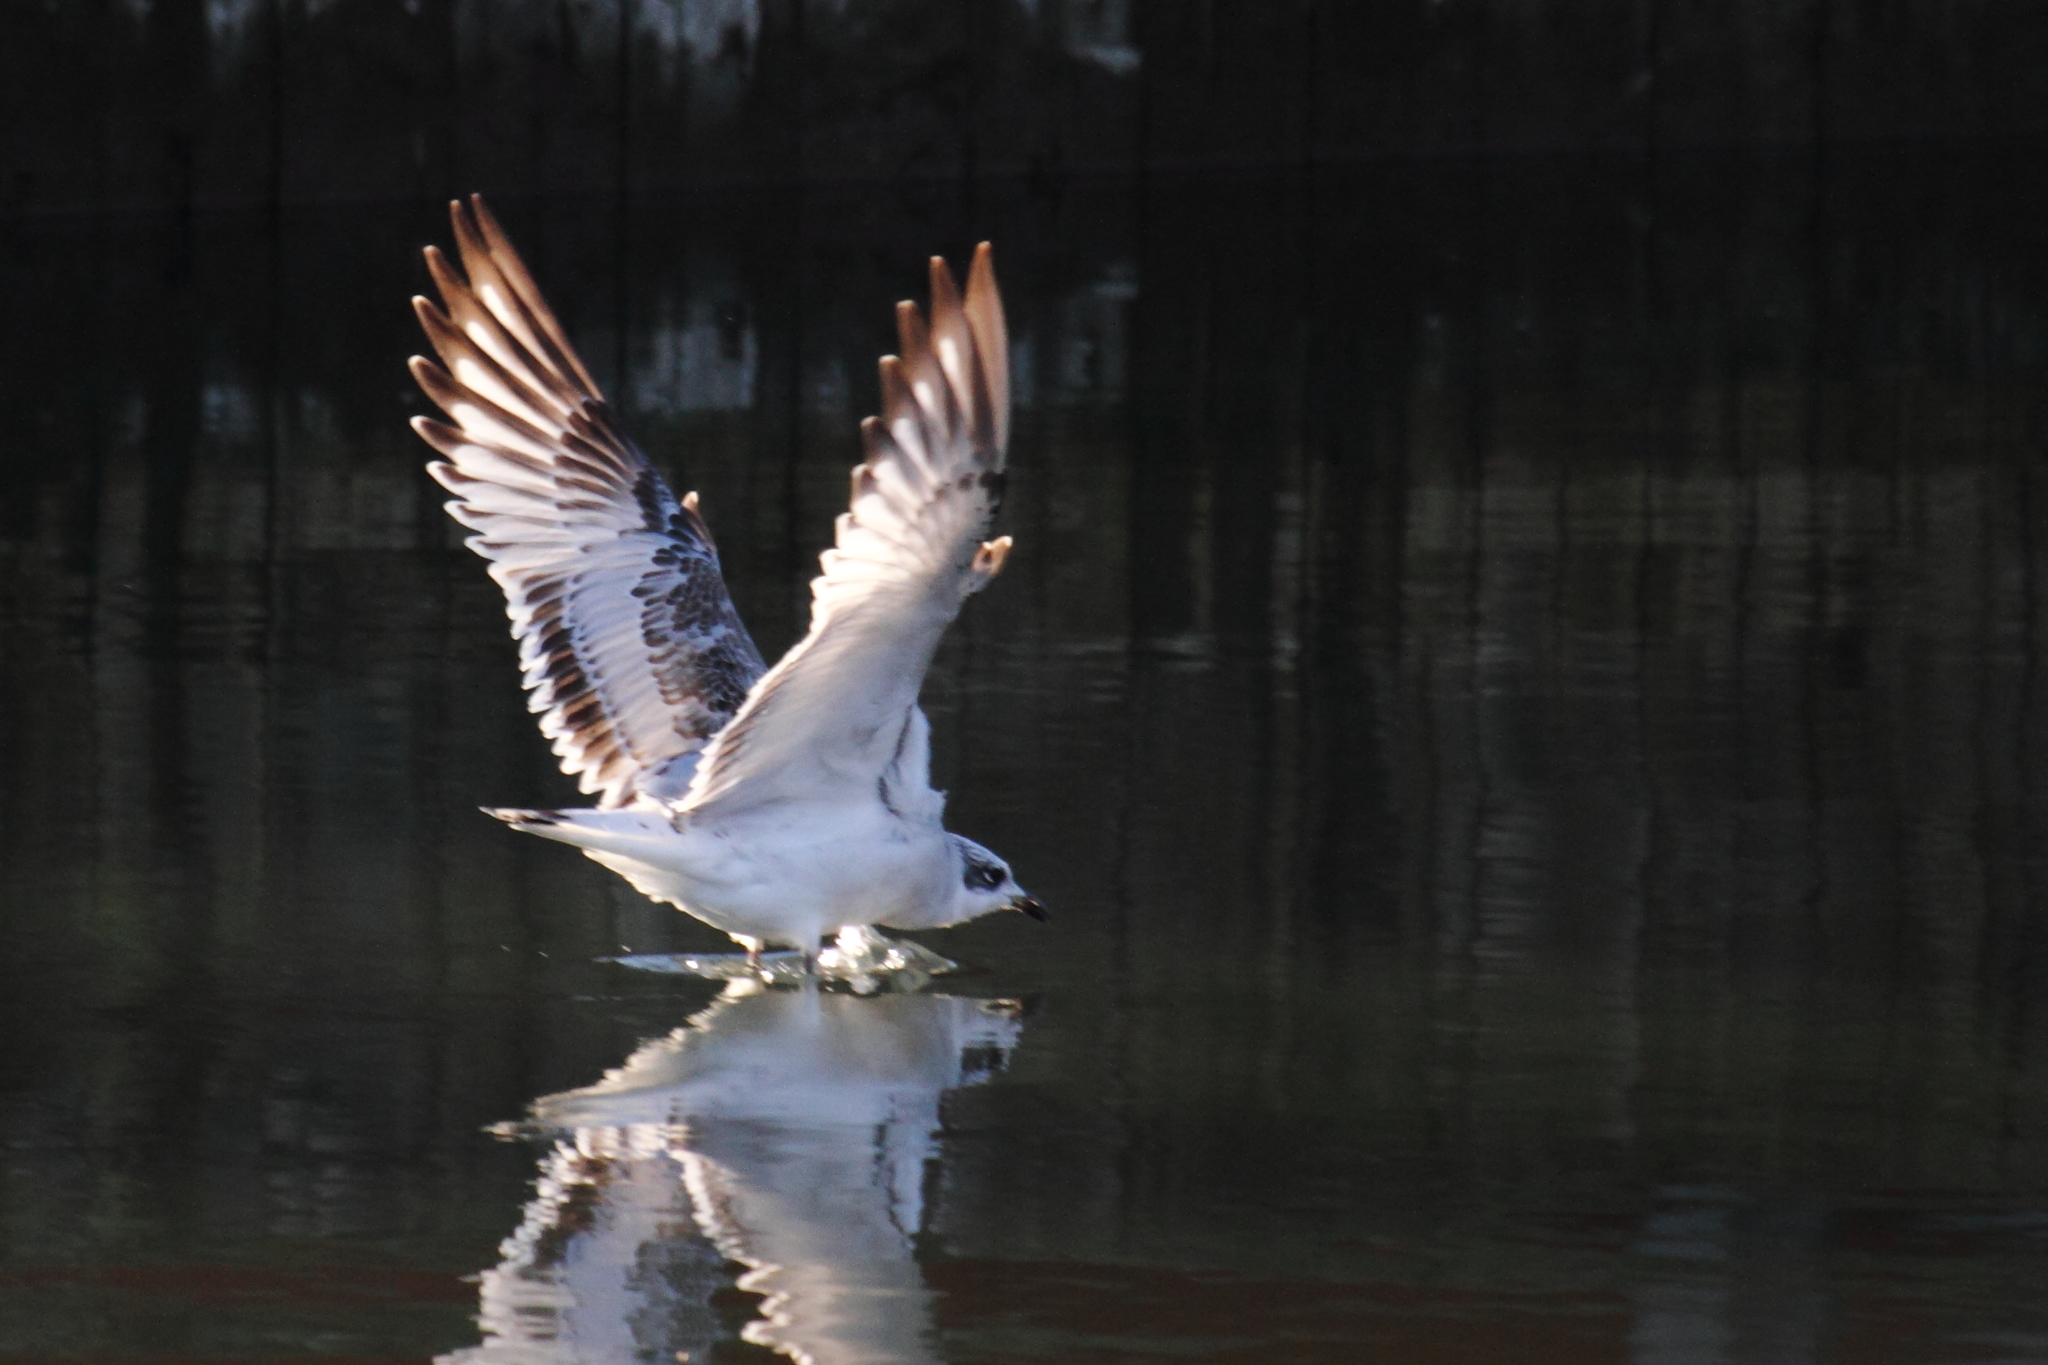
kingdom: Animalia
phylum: Chordata
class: Aves
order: Charadriiformes
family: Laridae
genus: Ichthyaetus
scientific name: Ichthyaetus melanocephalus
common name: Mediterranean gull
